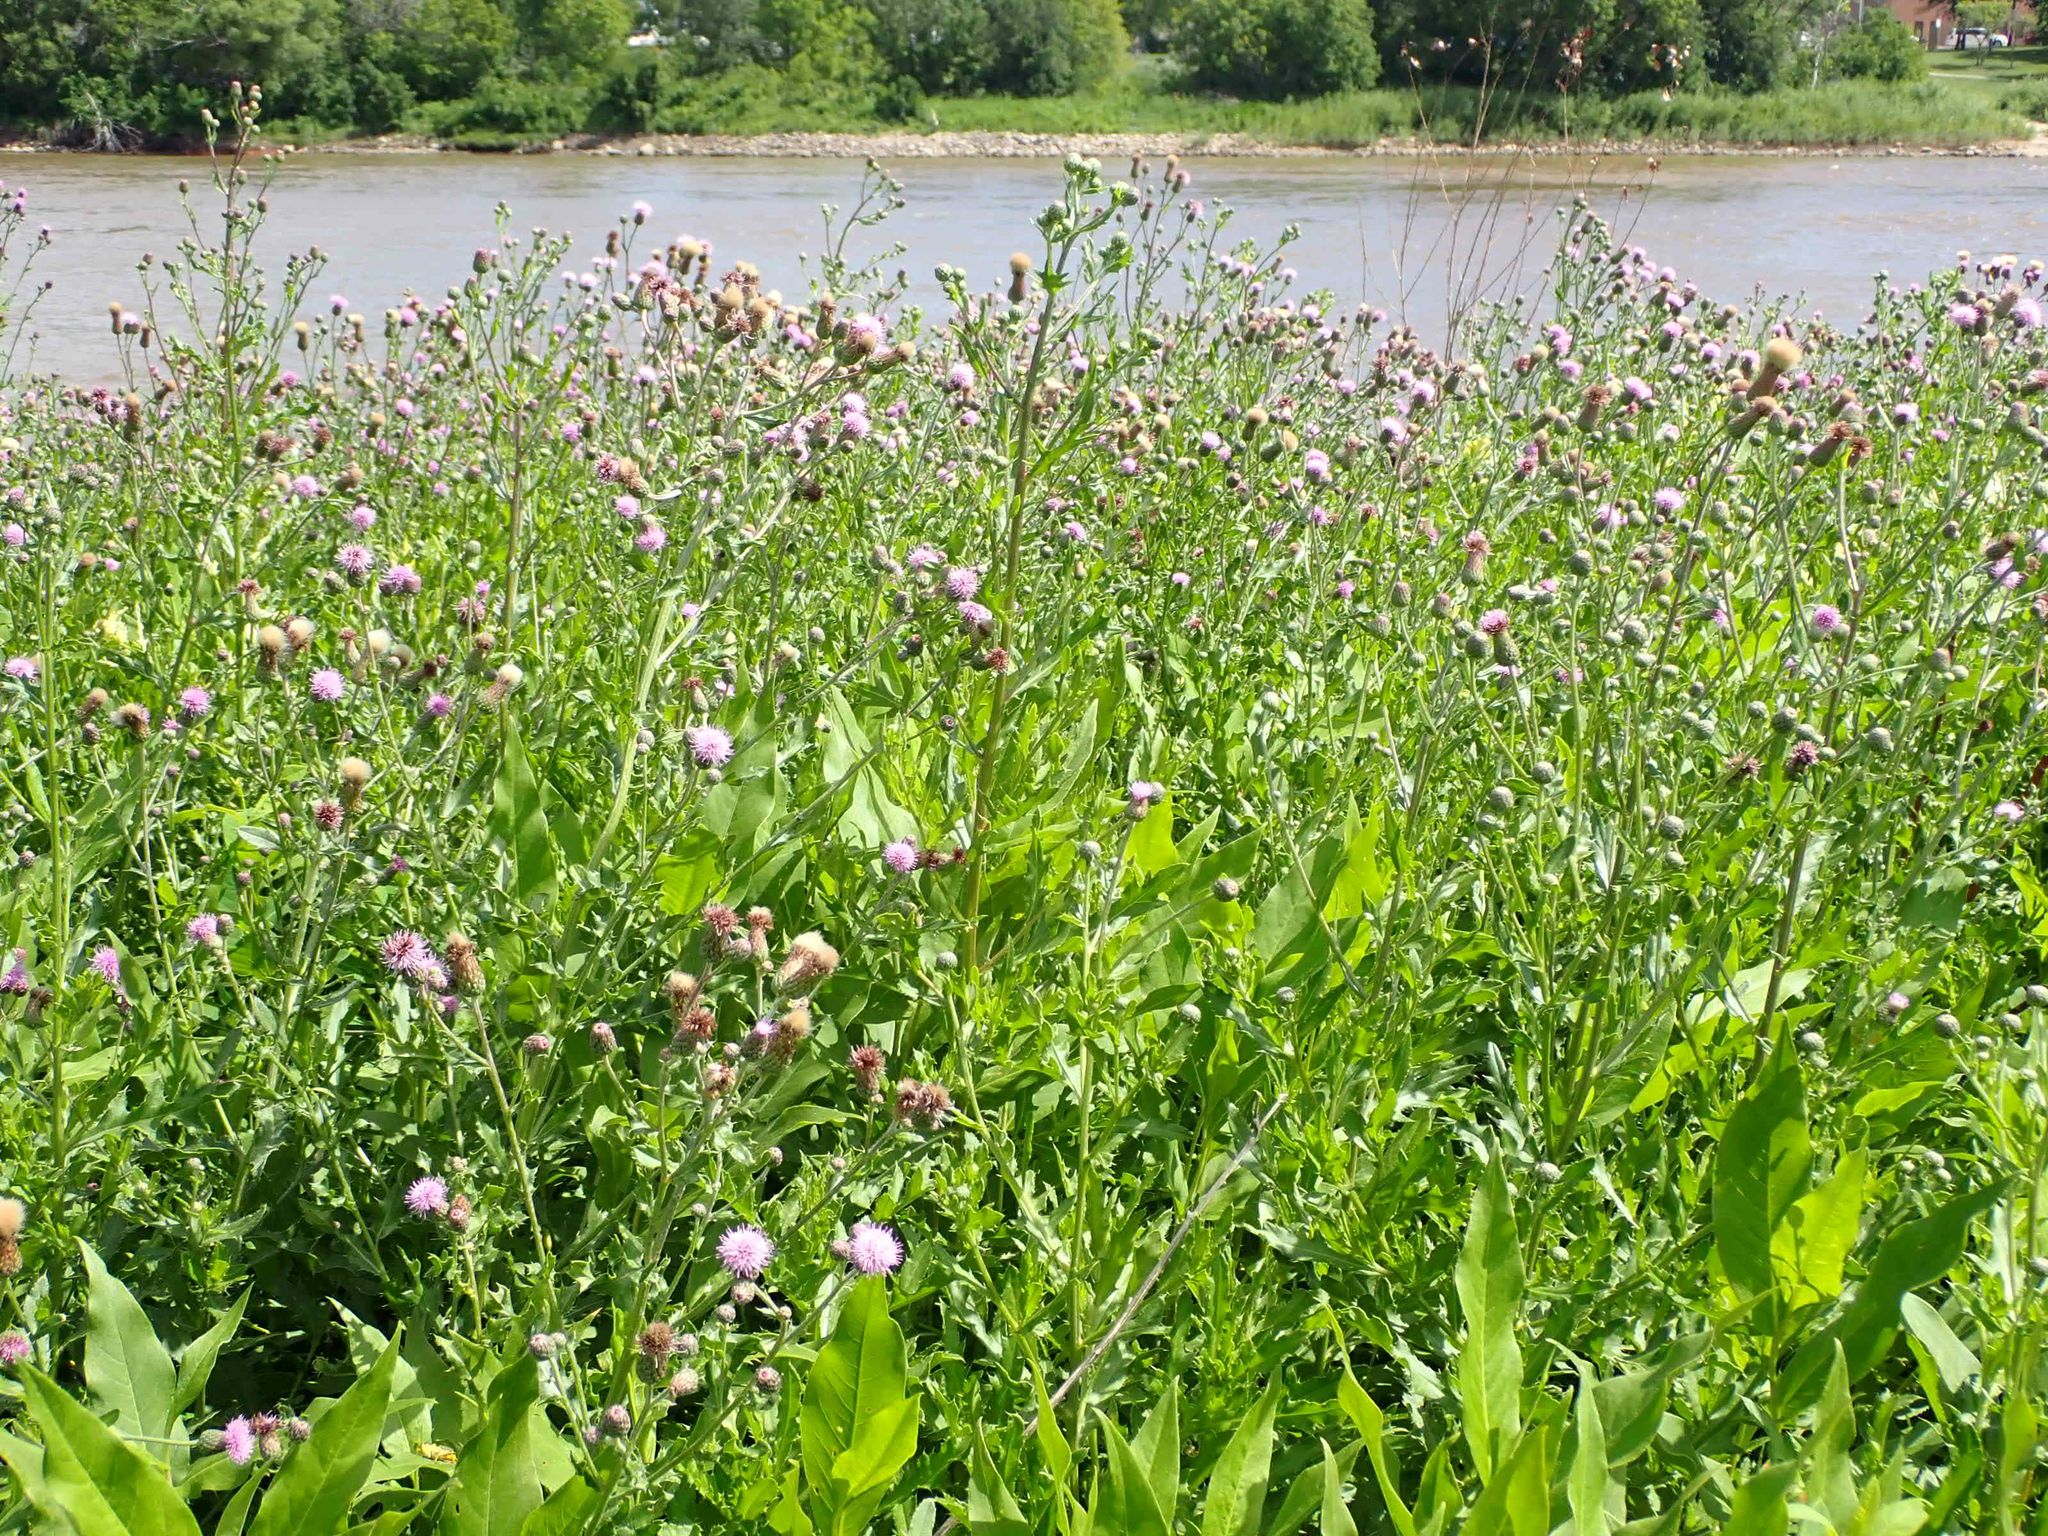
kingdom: Plantae
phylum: Tracheophyta
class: Magnoliopsida
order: Asterales
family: Asteraceae
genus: Cirsium
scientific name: Cirsium arvense
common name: Creeping thistle
